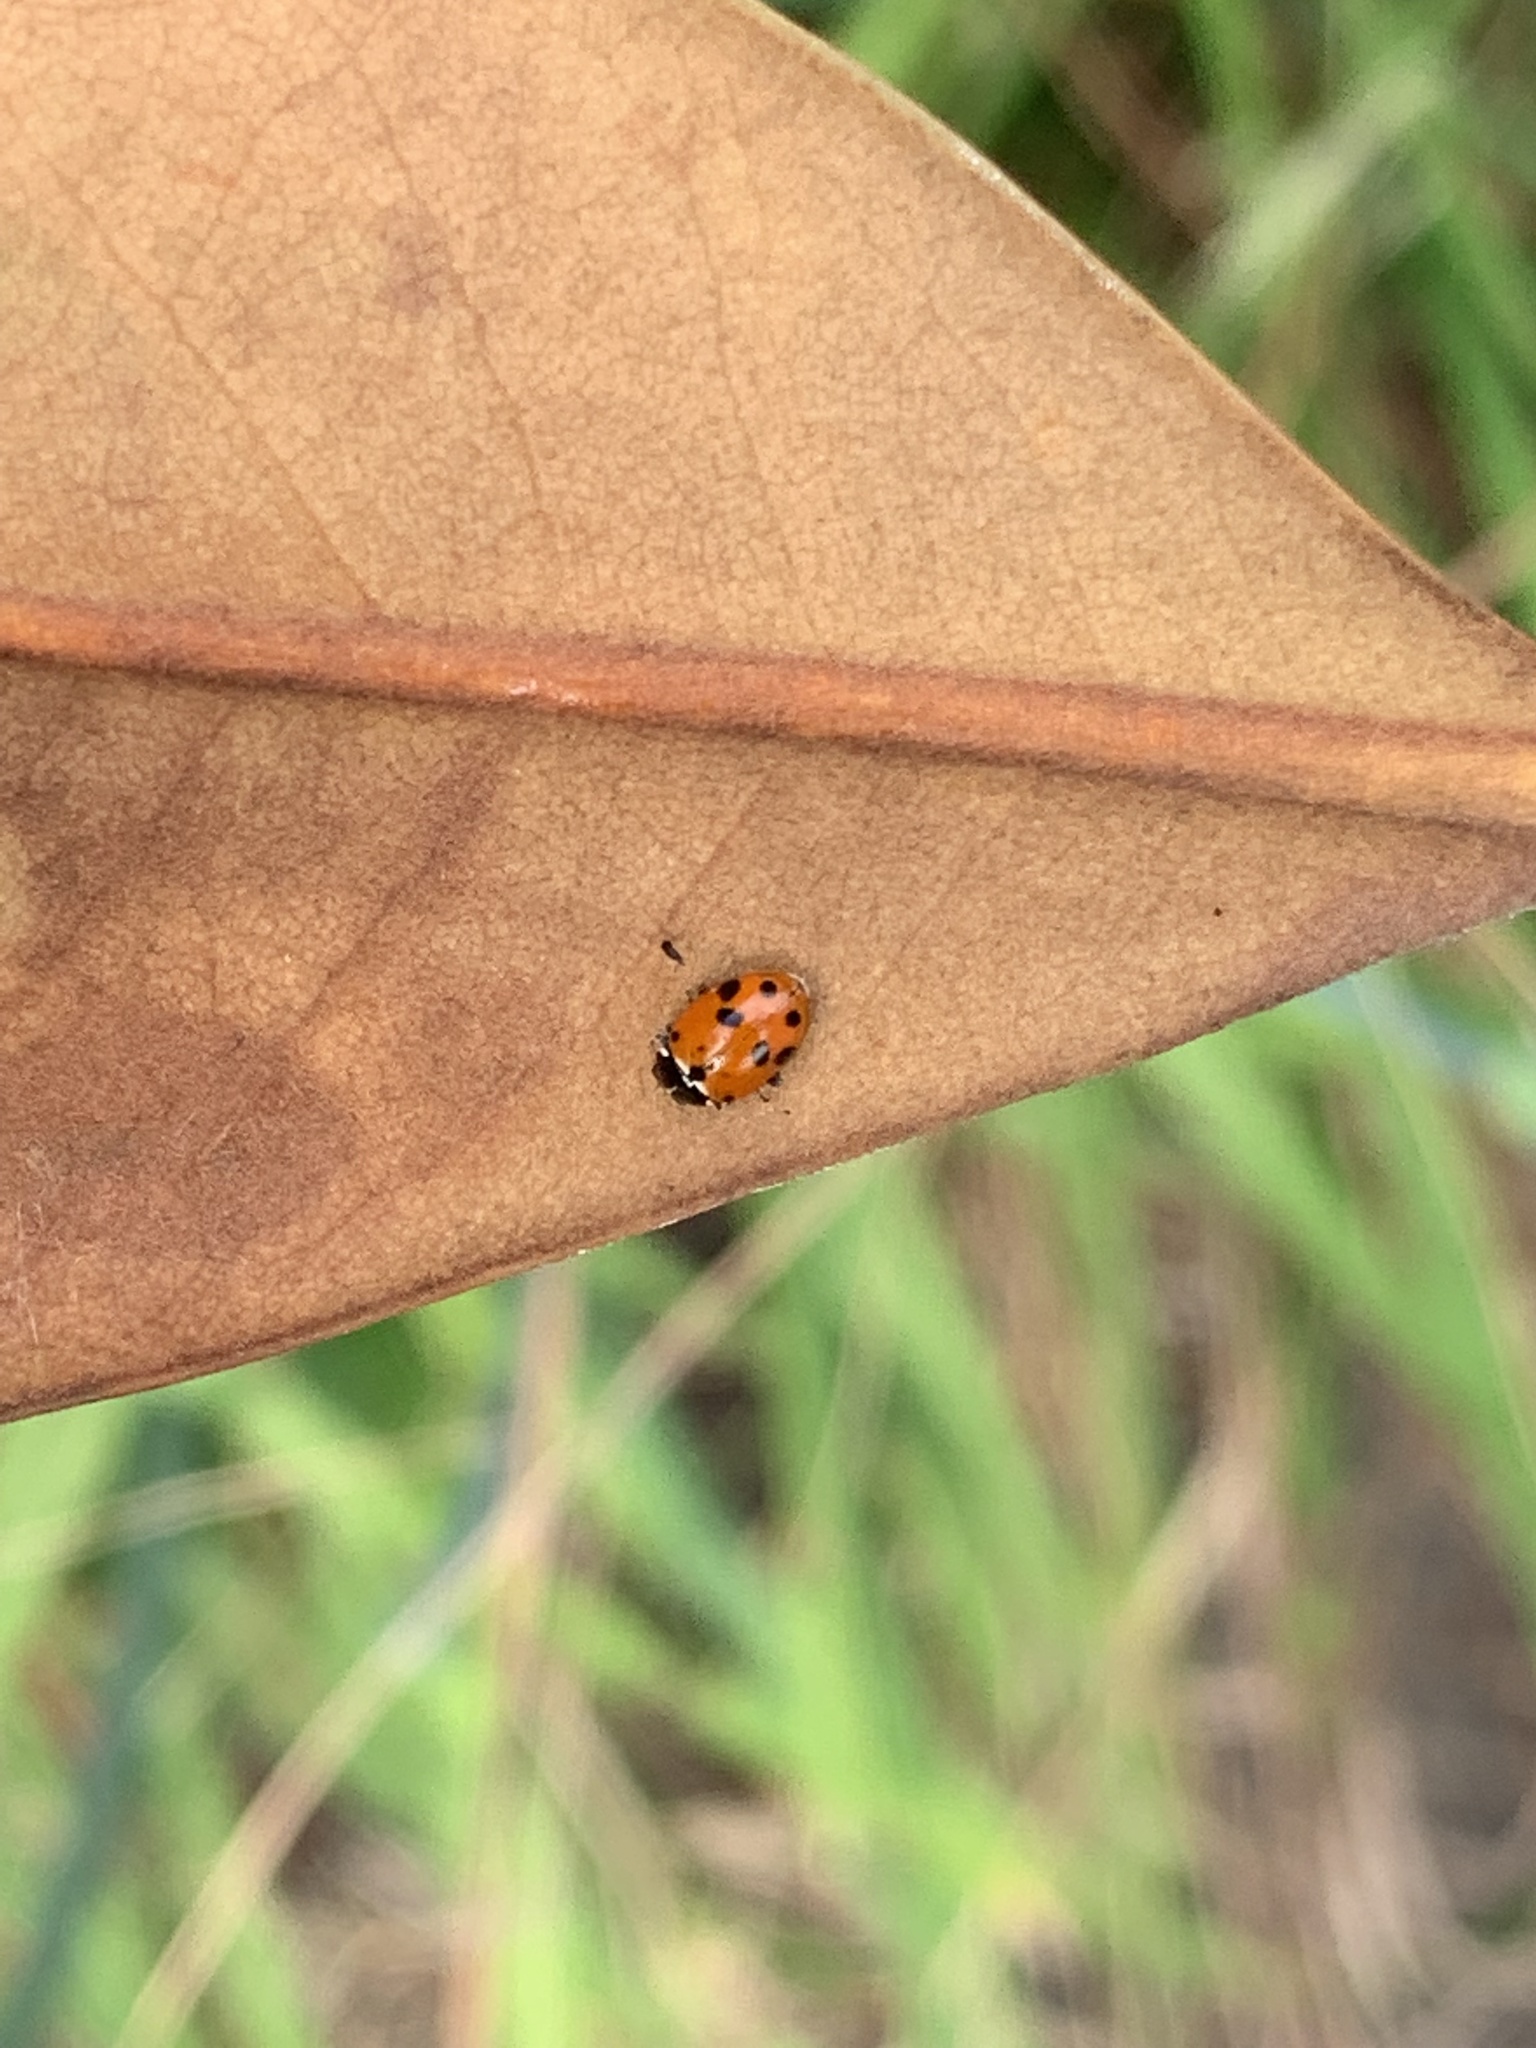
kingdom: Animalia
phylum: Arthropoda
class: Insecta
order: Coleoptera
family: Coccinellidae
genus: Hippodamia
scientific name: Hippodamia variegata
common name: Ladybird beetle
